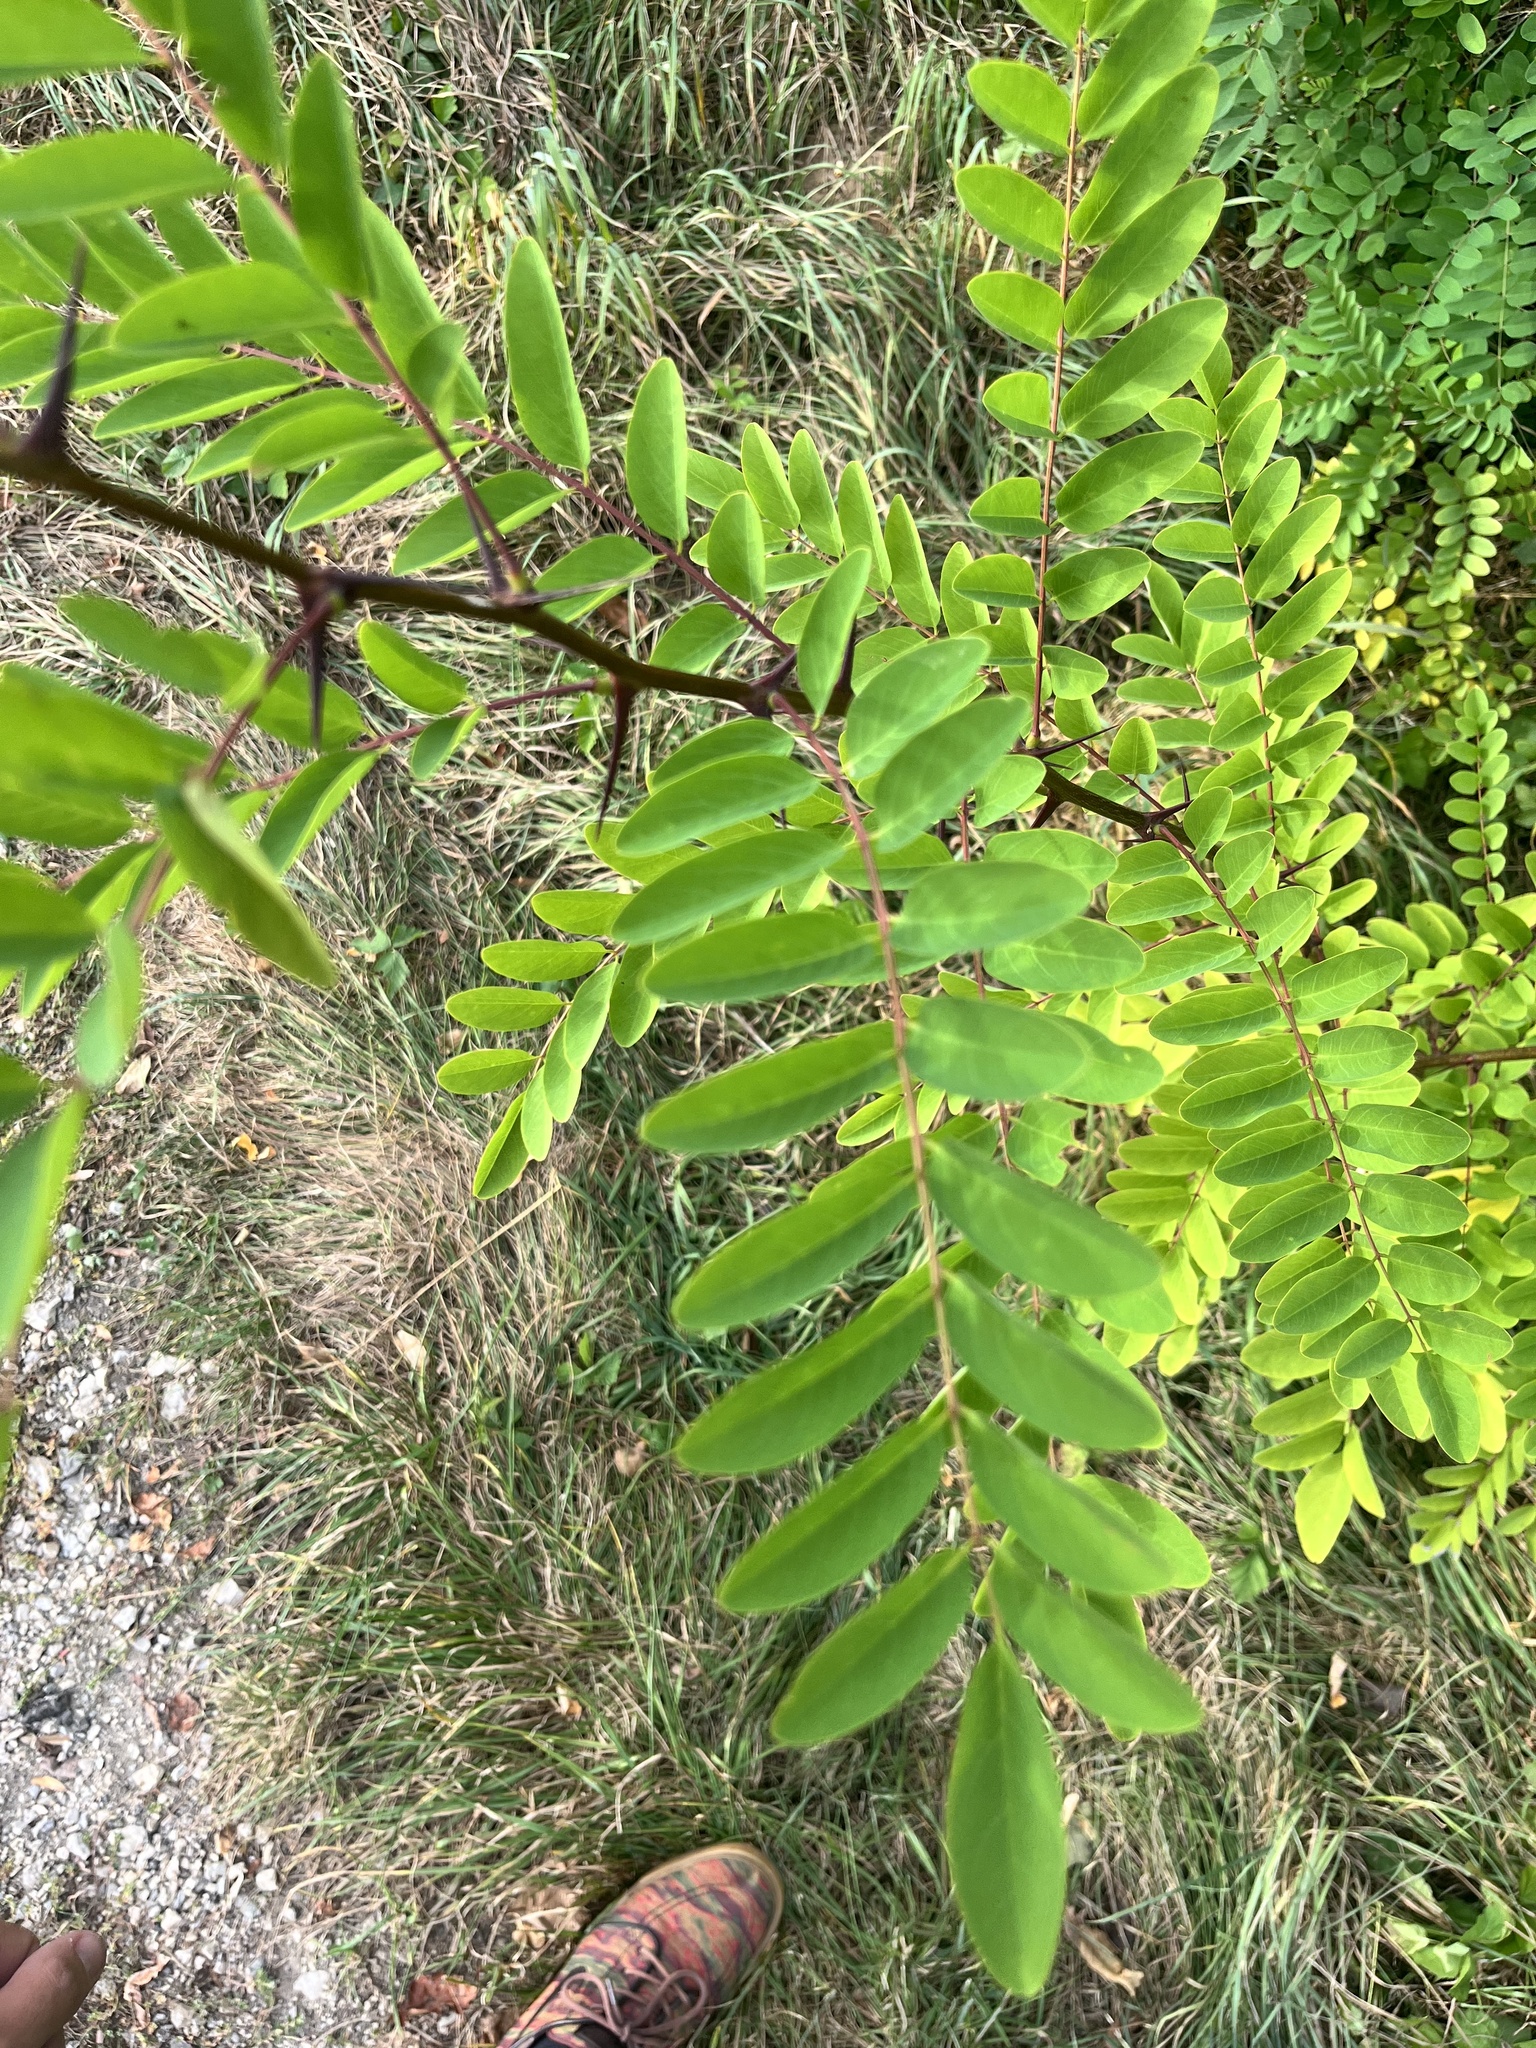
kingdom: Plantae
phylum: Tracheophyta
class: Magnoliopsida
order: Fabales
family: Fabaceae
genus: Robinia
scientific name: Robinia pseudoacacia
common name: Black locust
